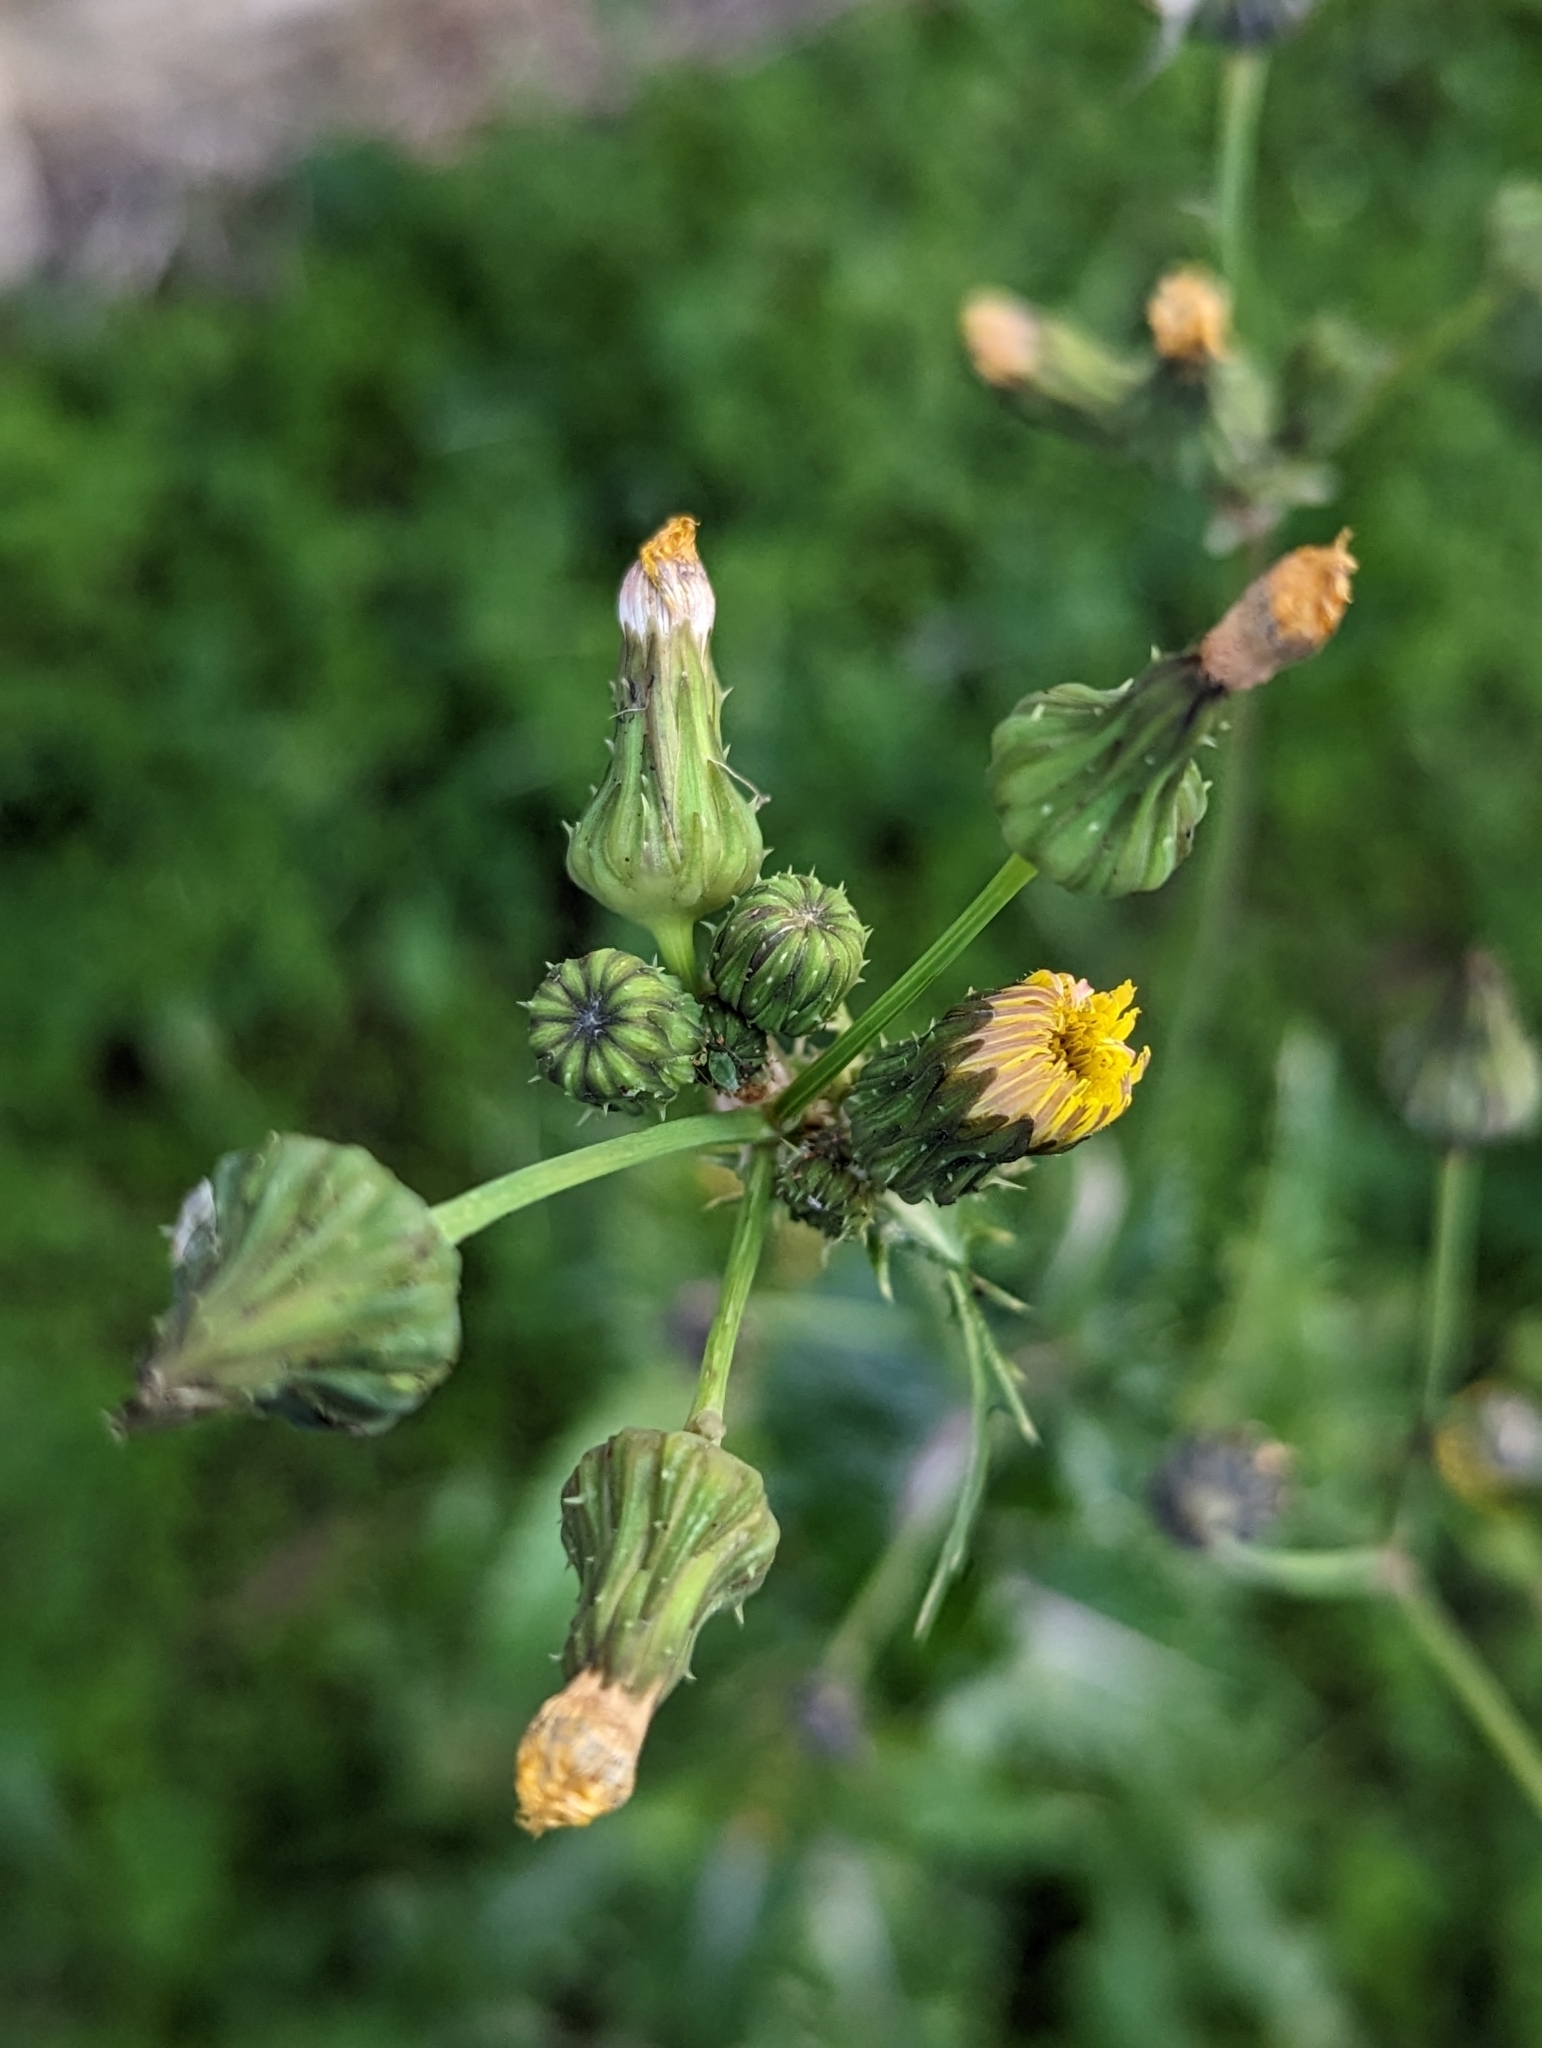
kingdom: Plantae
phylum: Tracheophyta
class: Magnoliopsida
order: Asterales
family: Asteraceae
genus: Sonchus
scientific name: Sonchus asper
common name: Prickly sow-thistle
